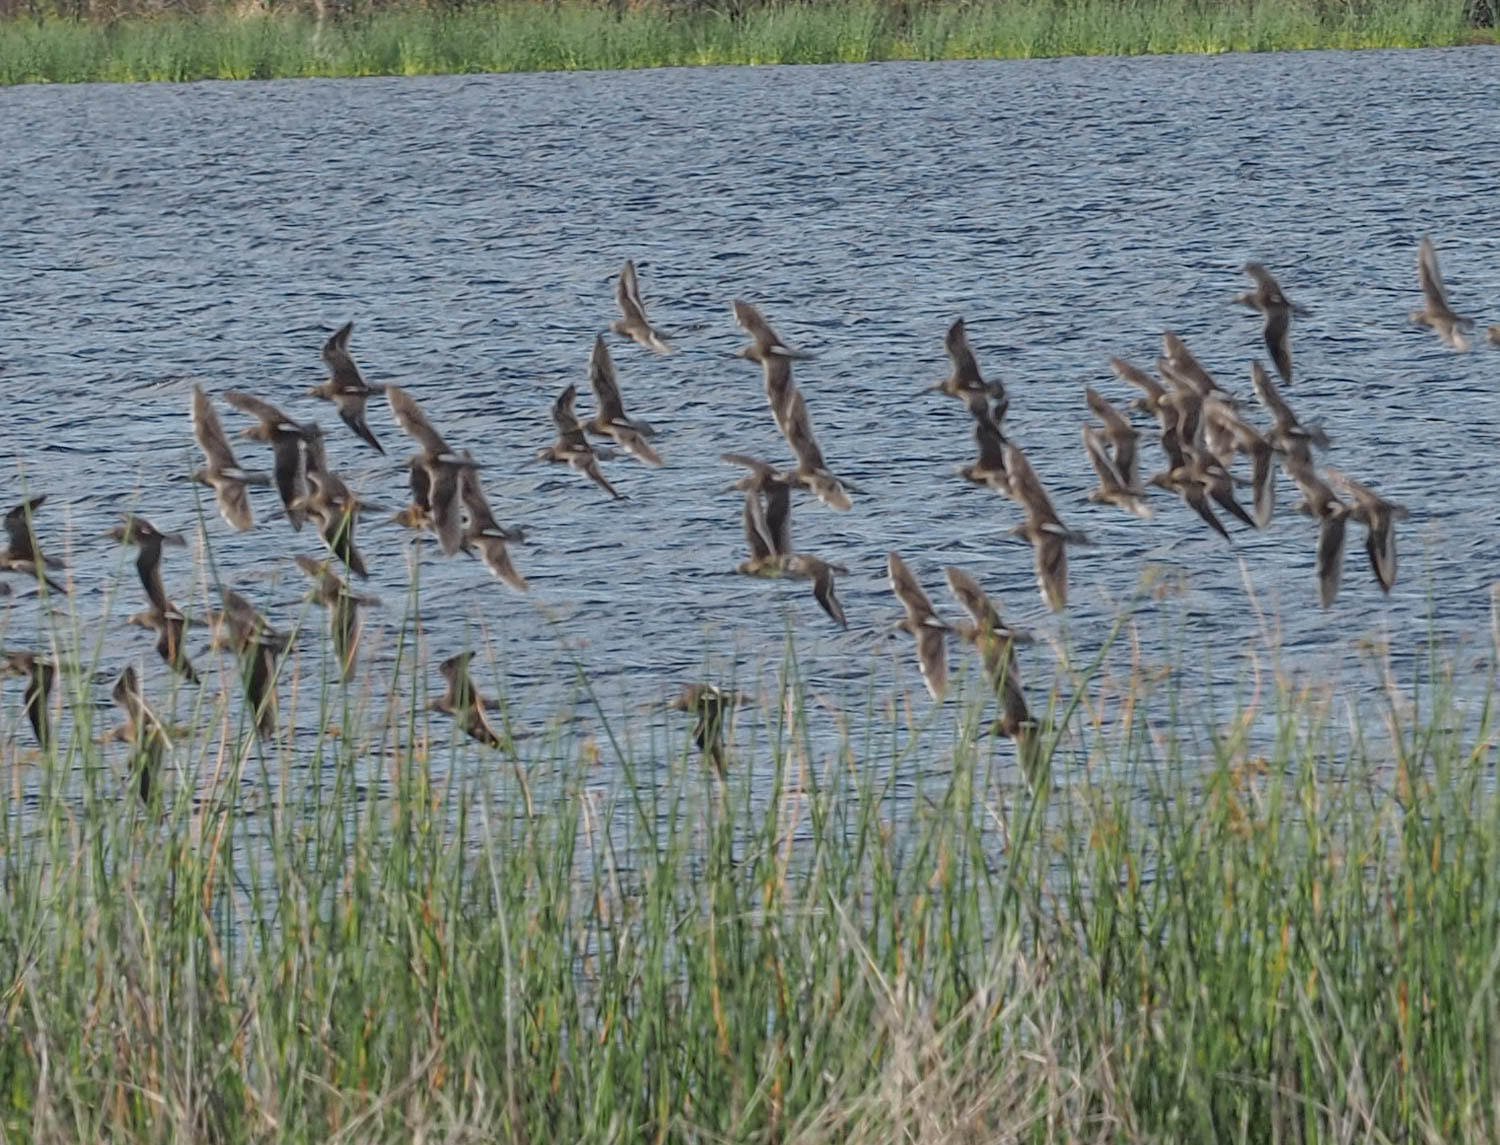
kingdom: Animalia
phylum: Chordata
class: Aves
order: Charadriiformes
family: Scolopacidae
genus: Limnodromus
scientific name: Limnodromus scolopaceus
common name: Long-billed dowitcher
